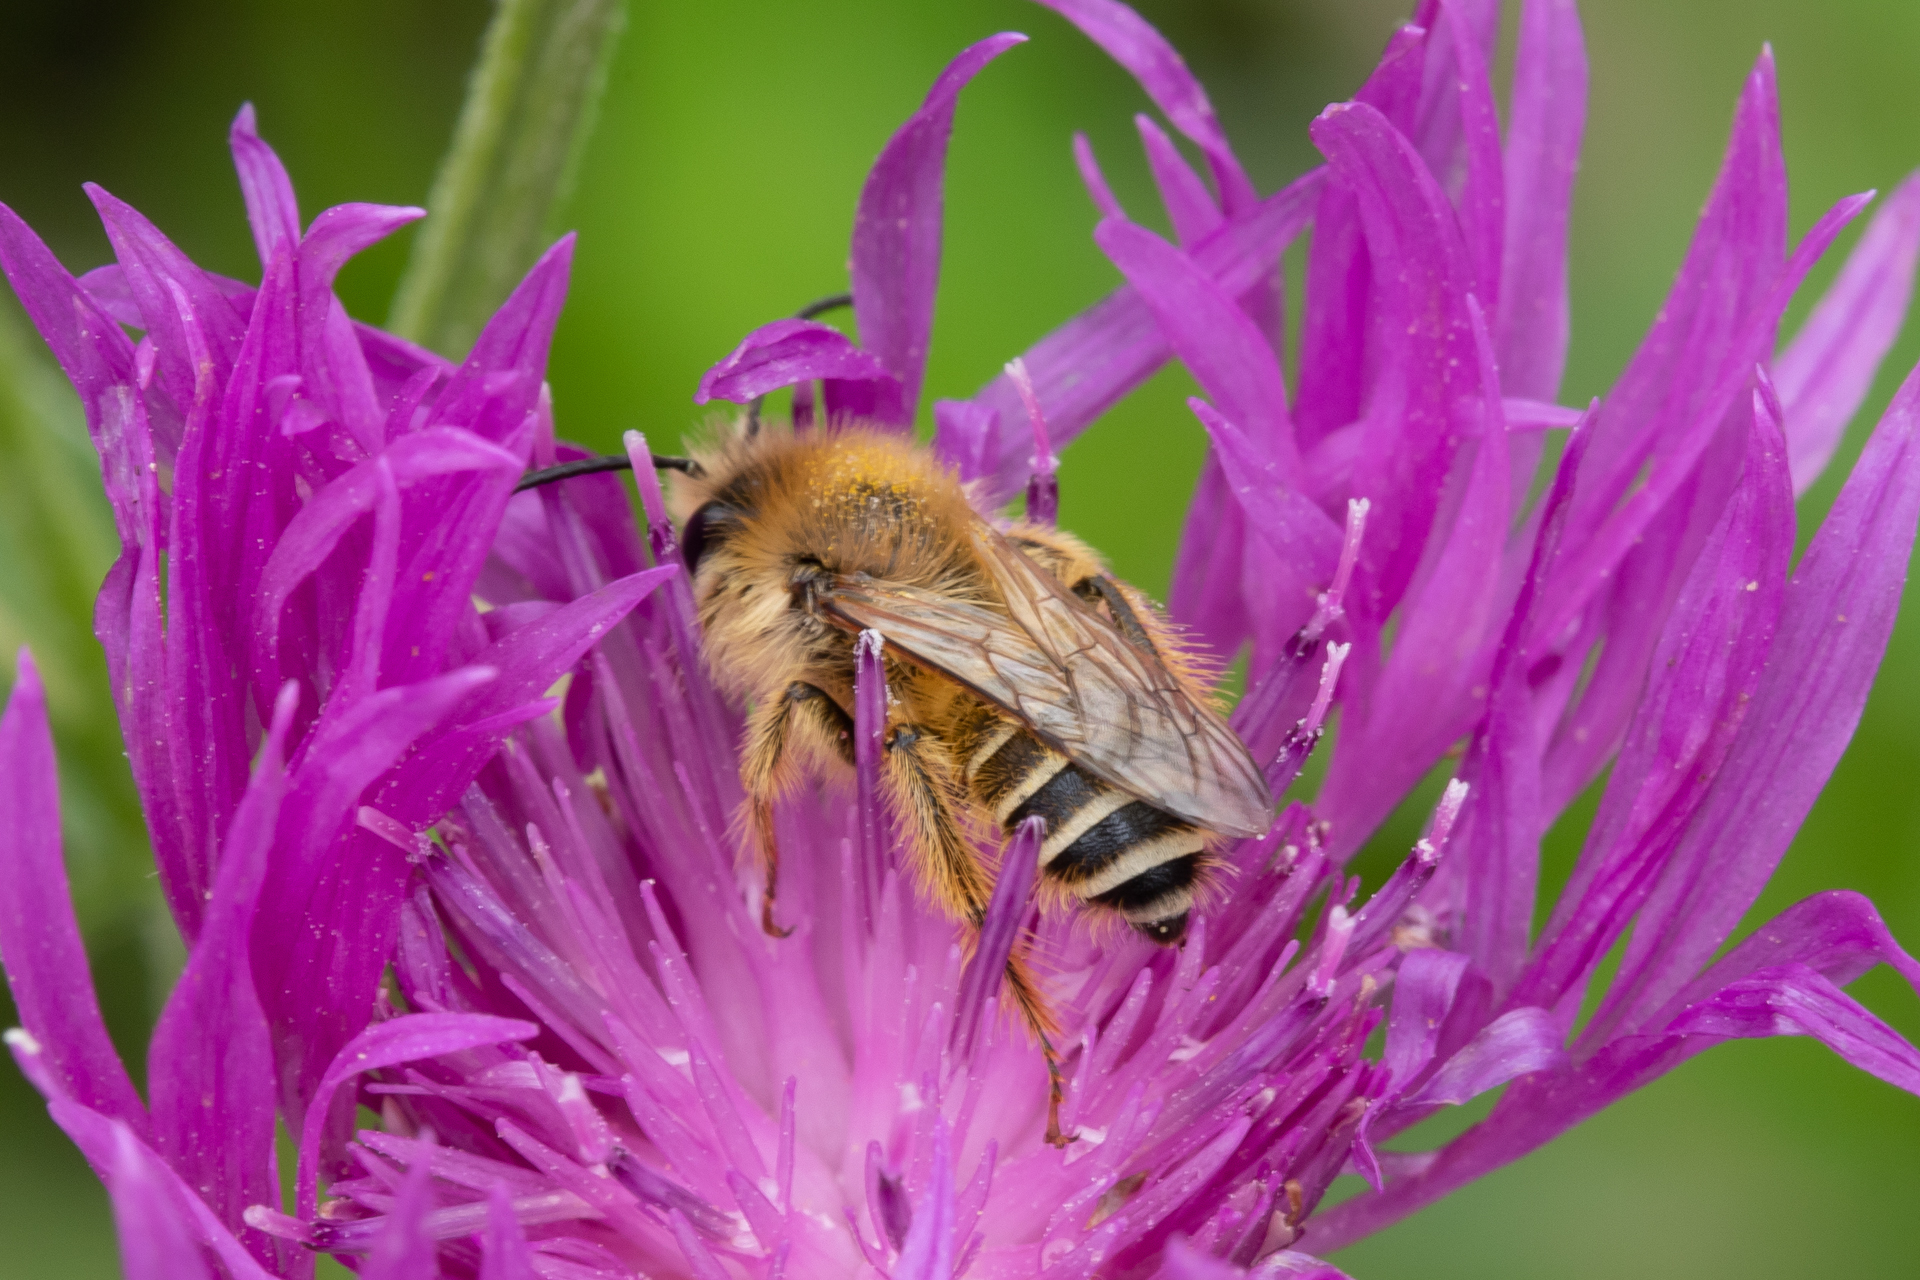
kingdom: Animalia
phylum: Arthropoda
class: Insecta
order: Hymenoptera
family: Melittidae
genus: Dasypoda
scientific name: Dasypoda hirtipes
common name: Pantaloon bee
